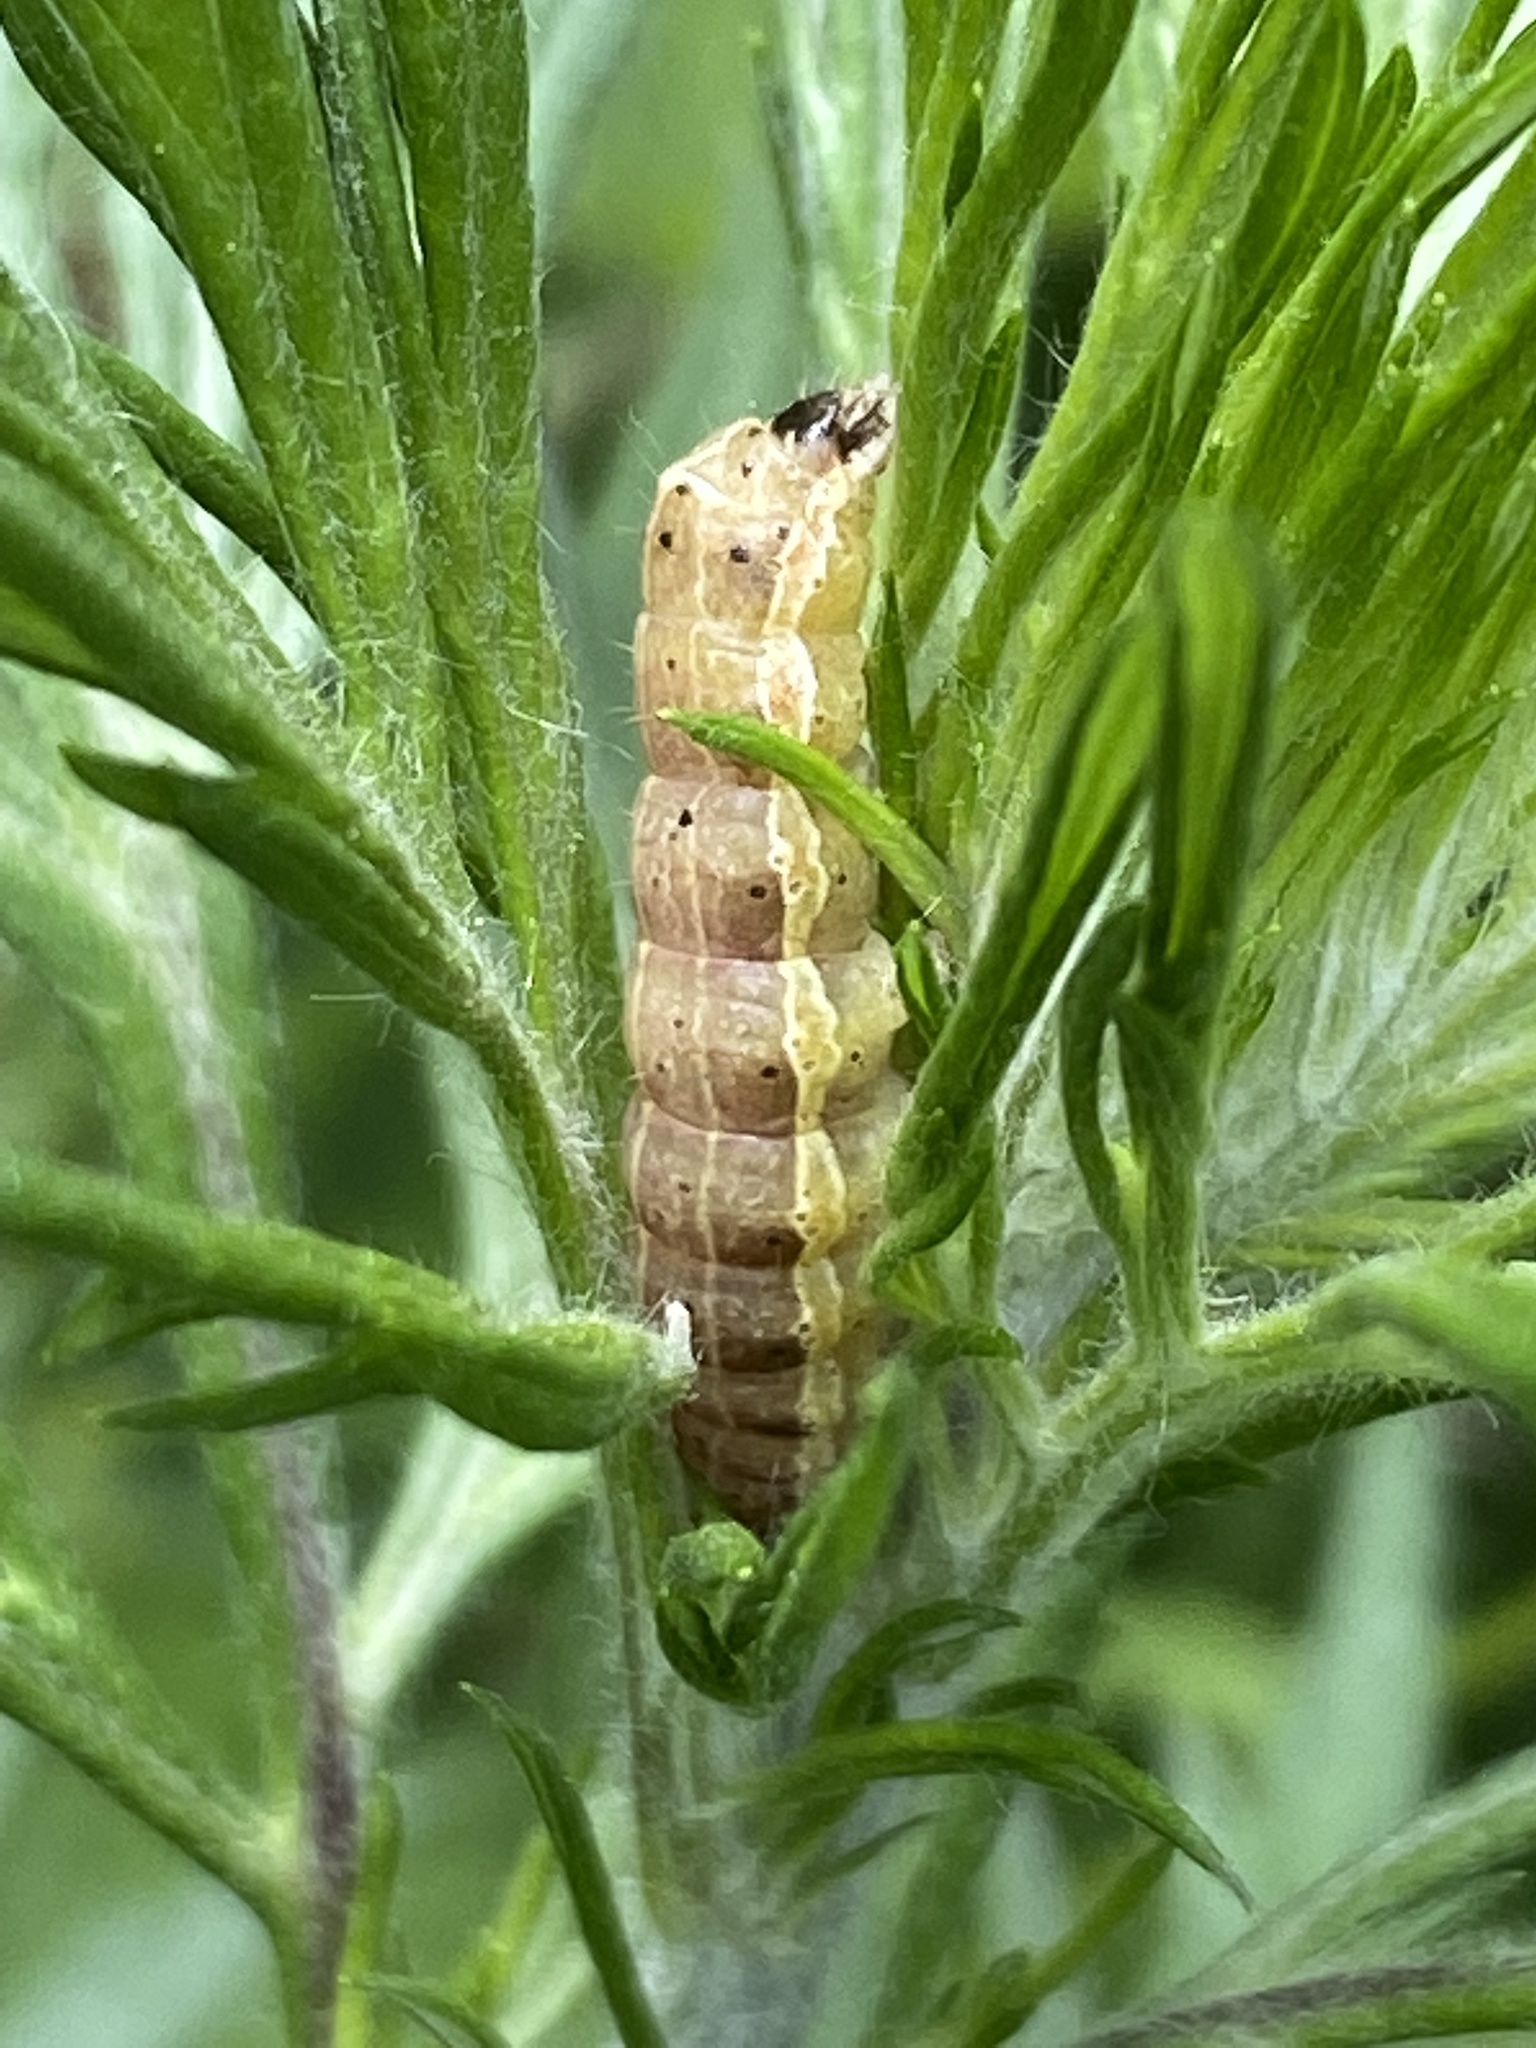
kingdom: Animalia
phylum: Arthropoda
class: Insecta
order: Lepidoptera
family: Noctuidae
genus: Orthosia
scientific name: Orthosia cruda
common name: Small quaker
